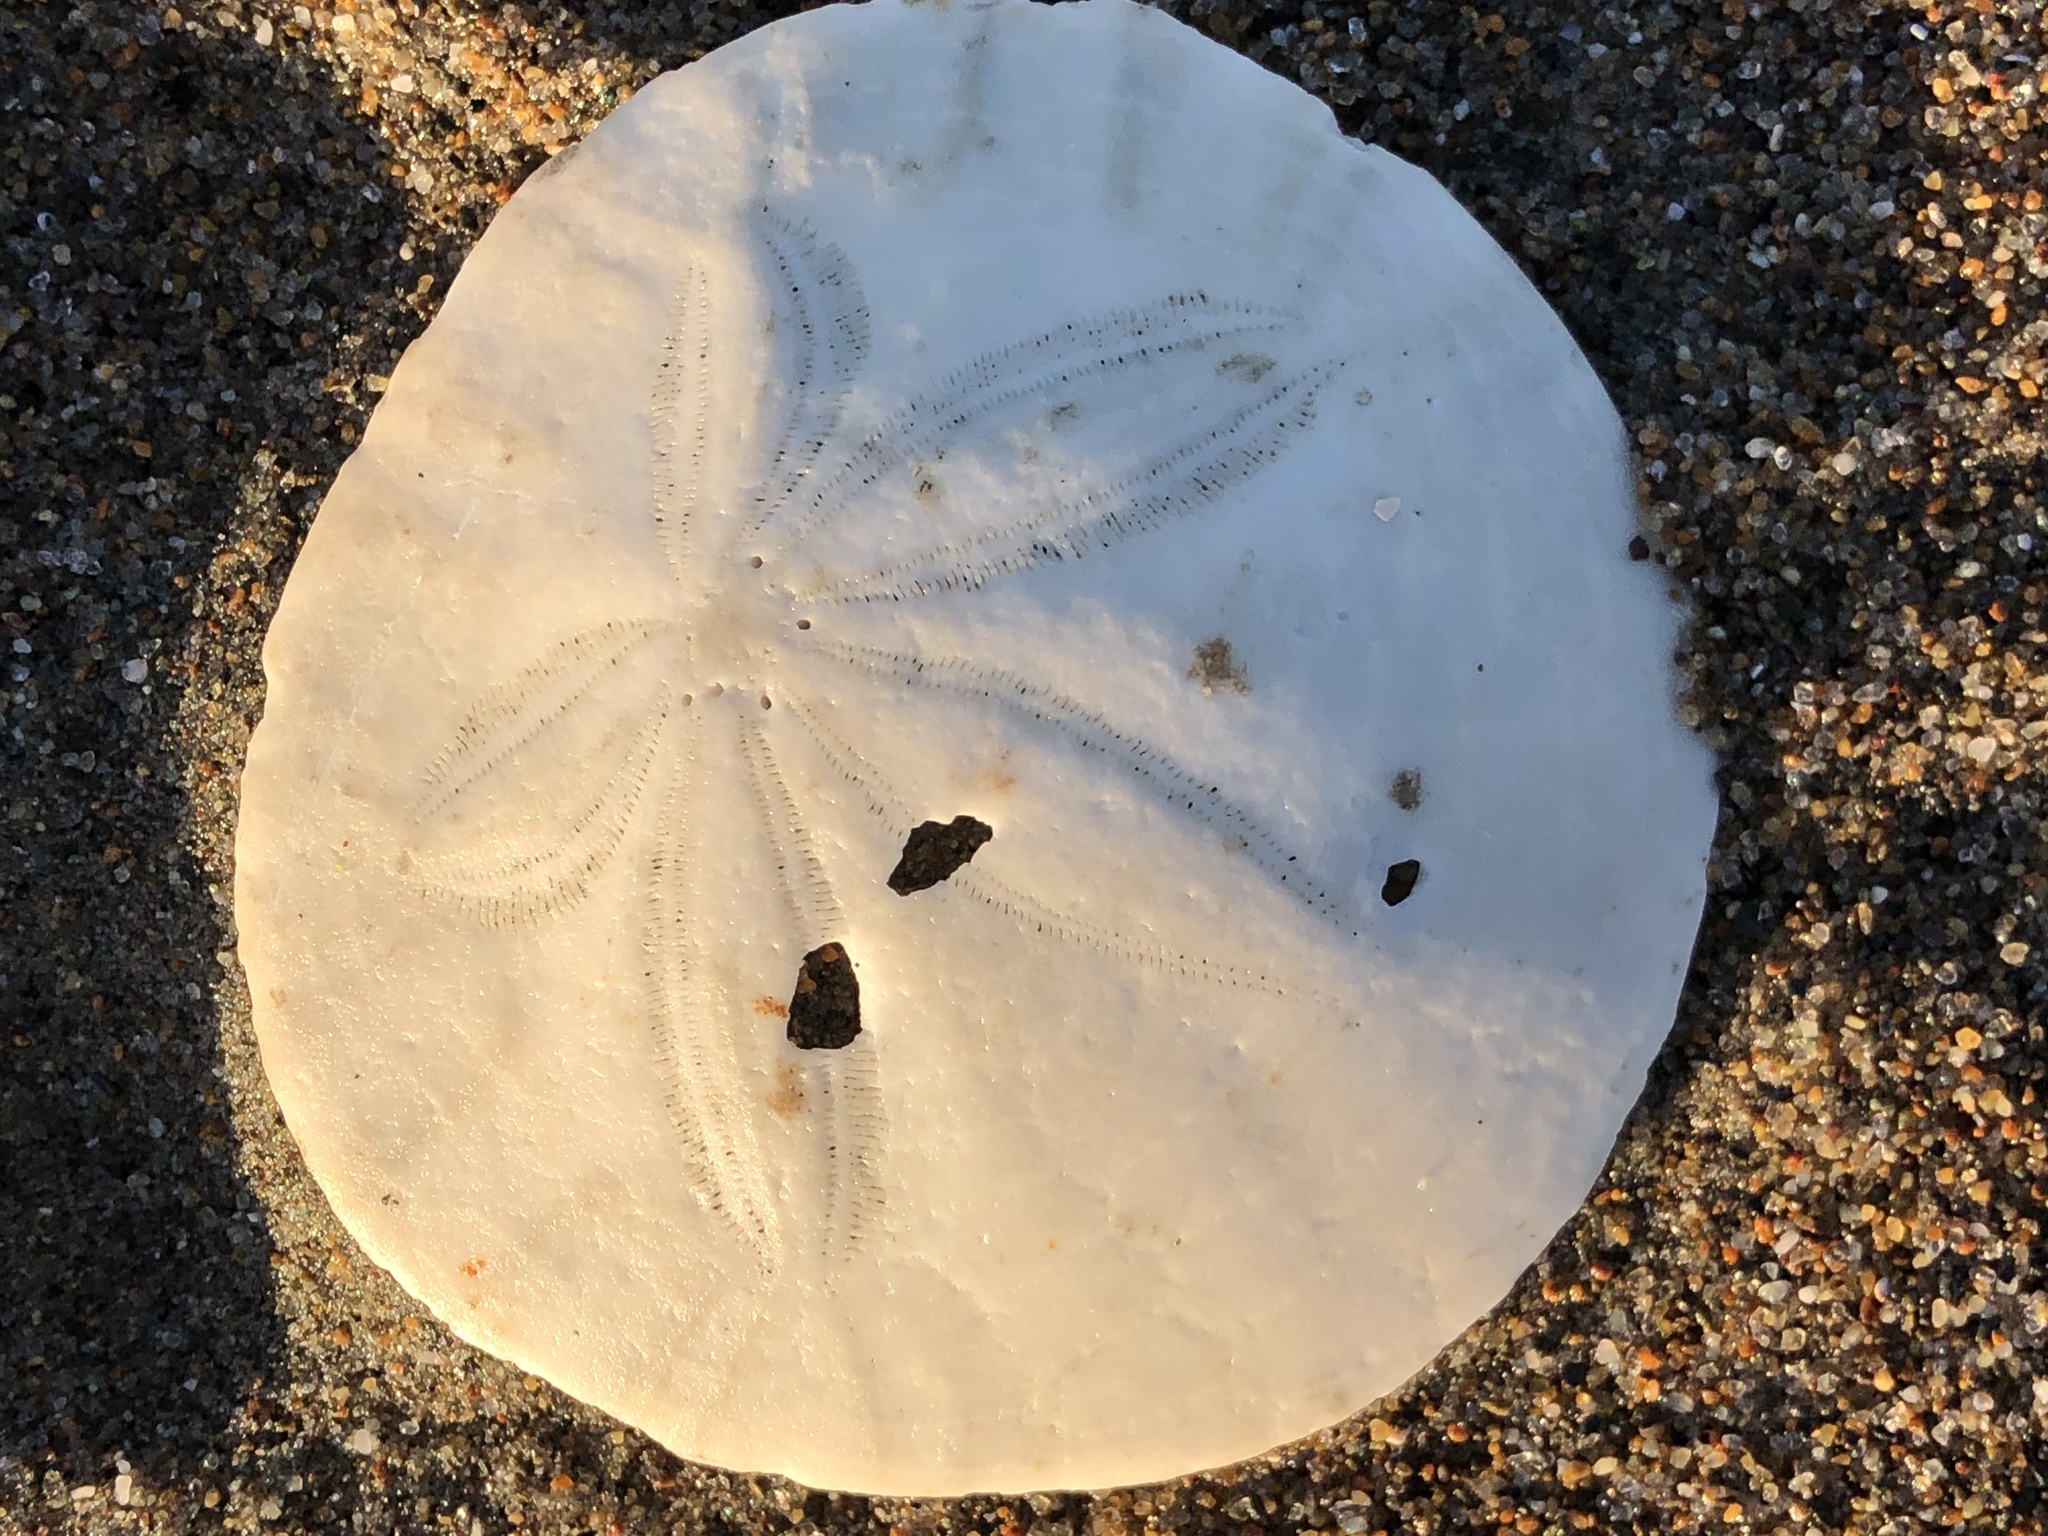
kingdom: Animalia
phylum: Echinodermata
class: Echinoidea
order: Echinolampadacea
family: Dendrasteridae
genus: Dendraster
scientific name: Dendraster excentricus
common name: Eccentric sand dollar sea urchin
